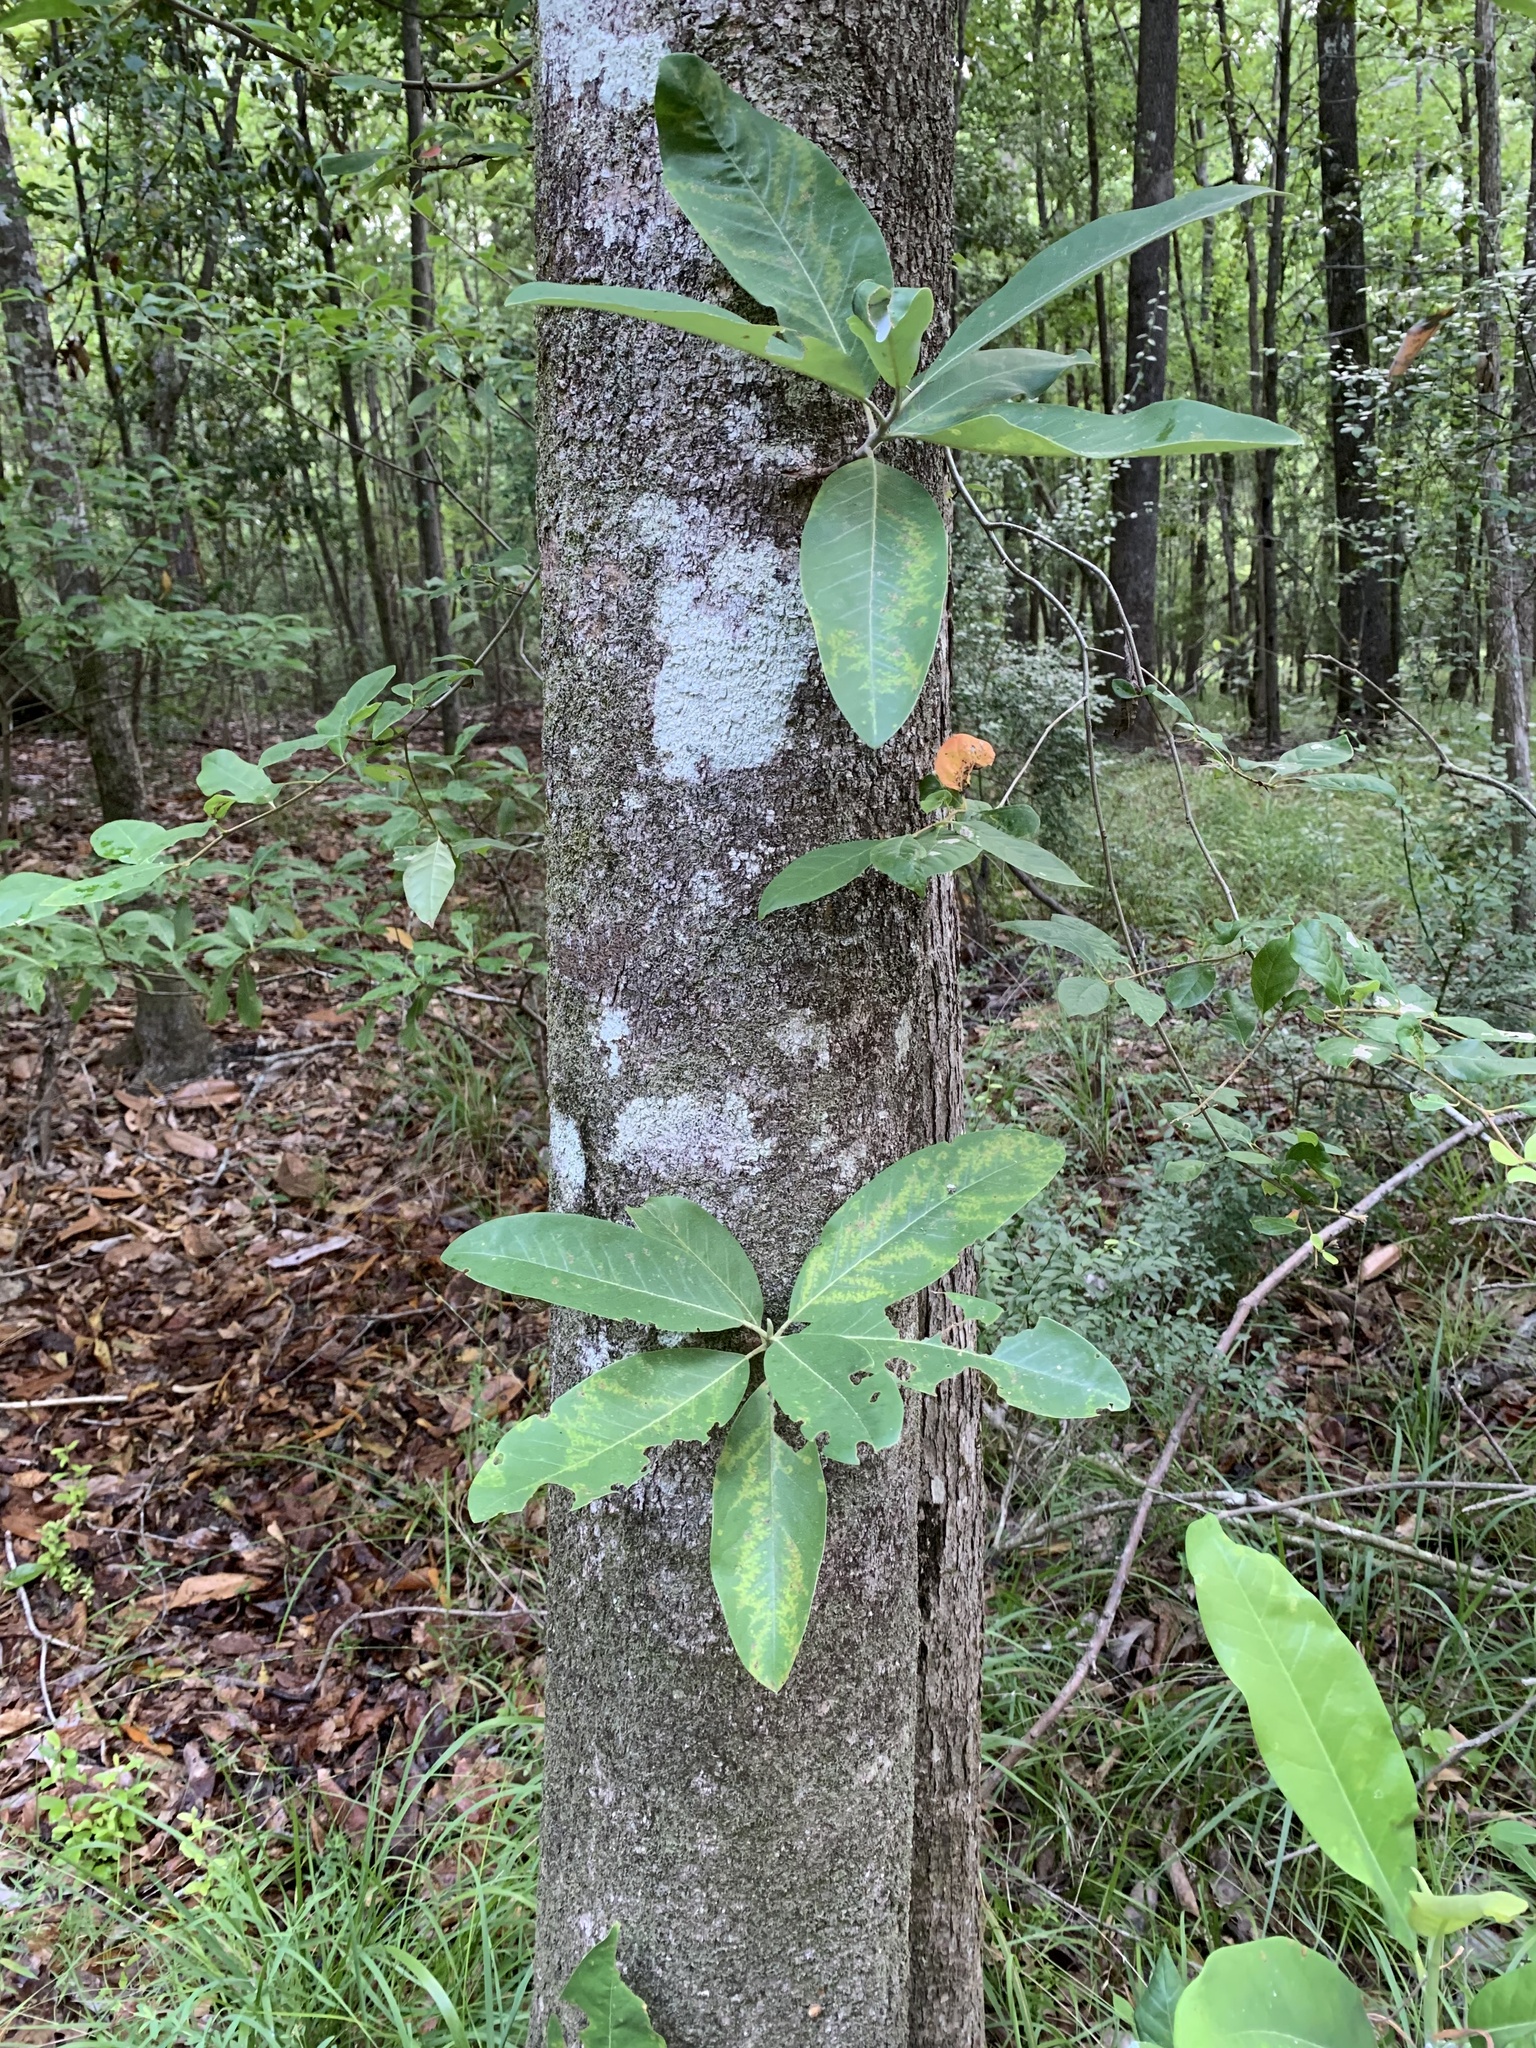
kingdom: Plantae
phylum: Tracheophyta
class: Magnoliopsida
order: Magnoliales
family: Magnoliaceae
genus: Magnolia
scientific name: Magnolia virginiana
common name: Swamp bay
